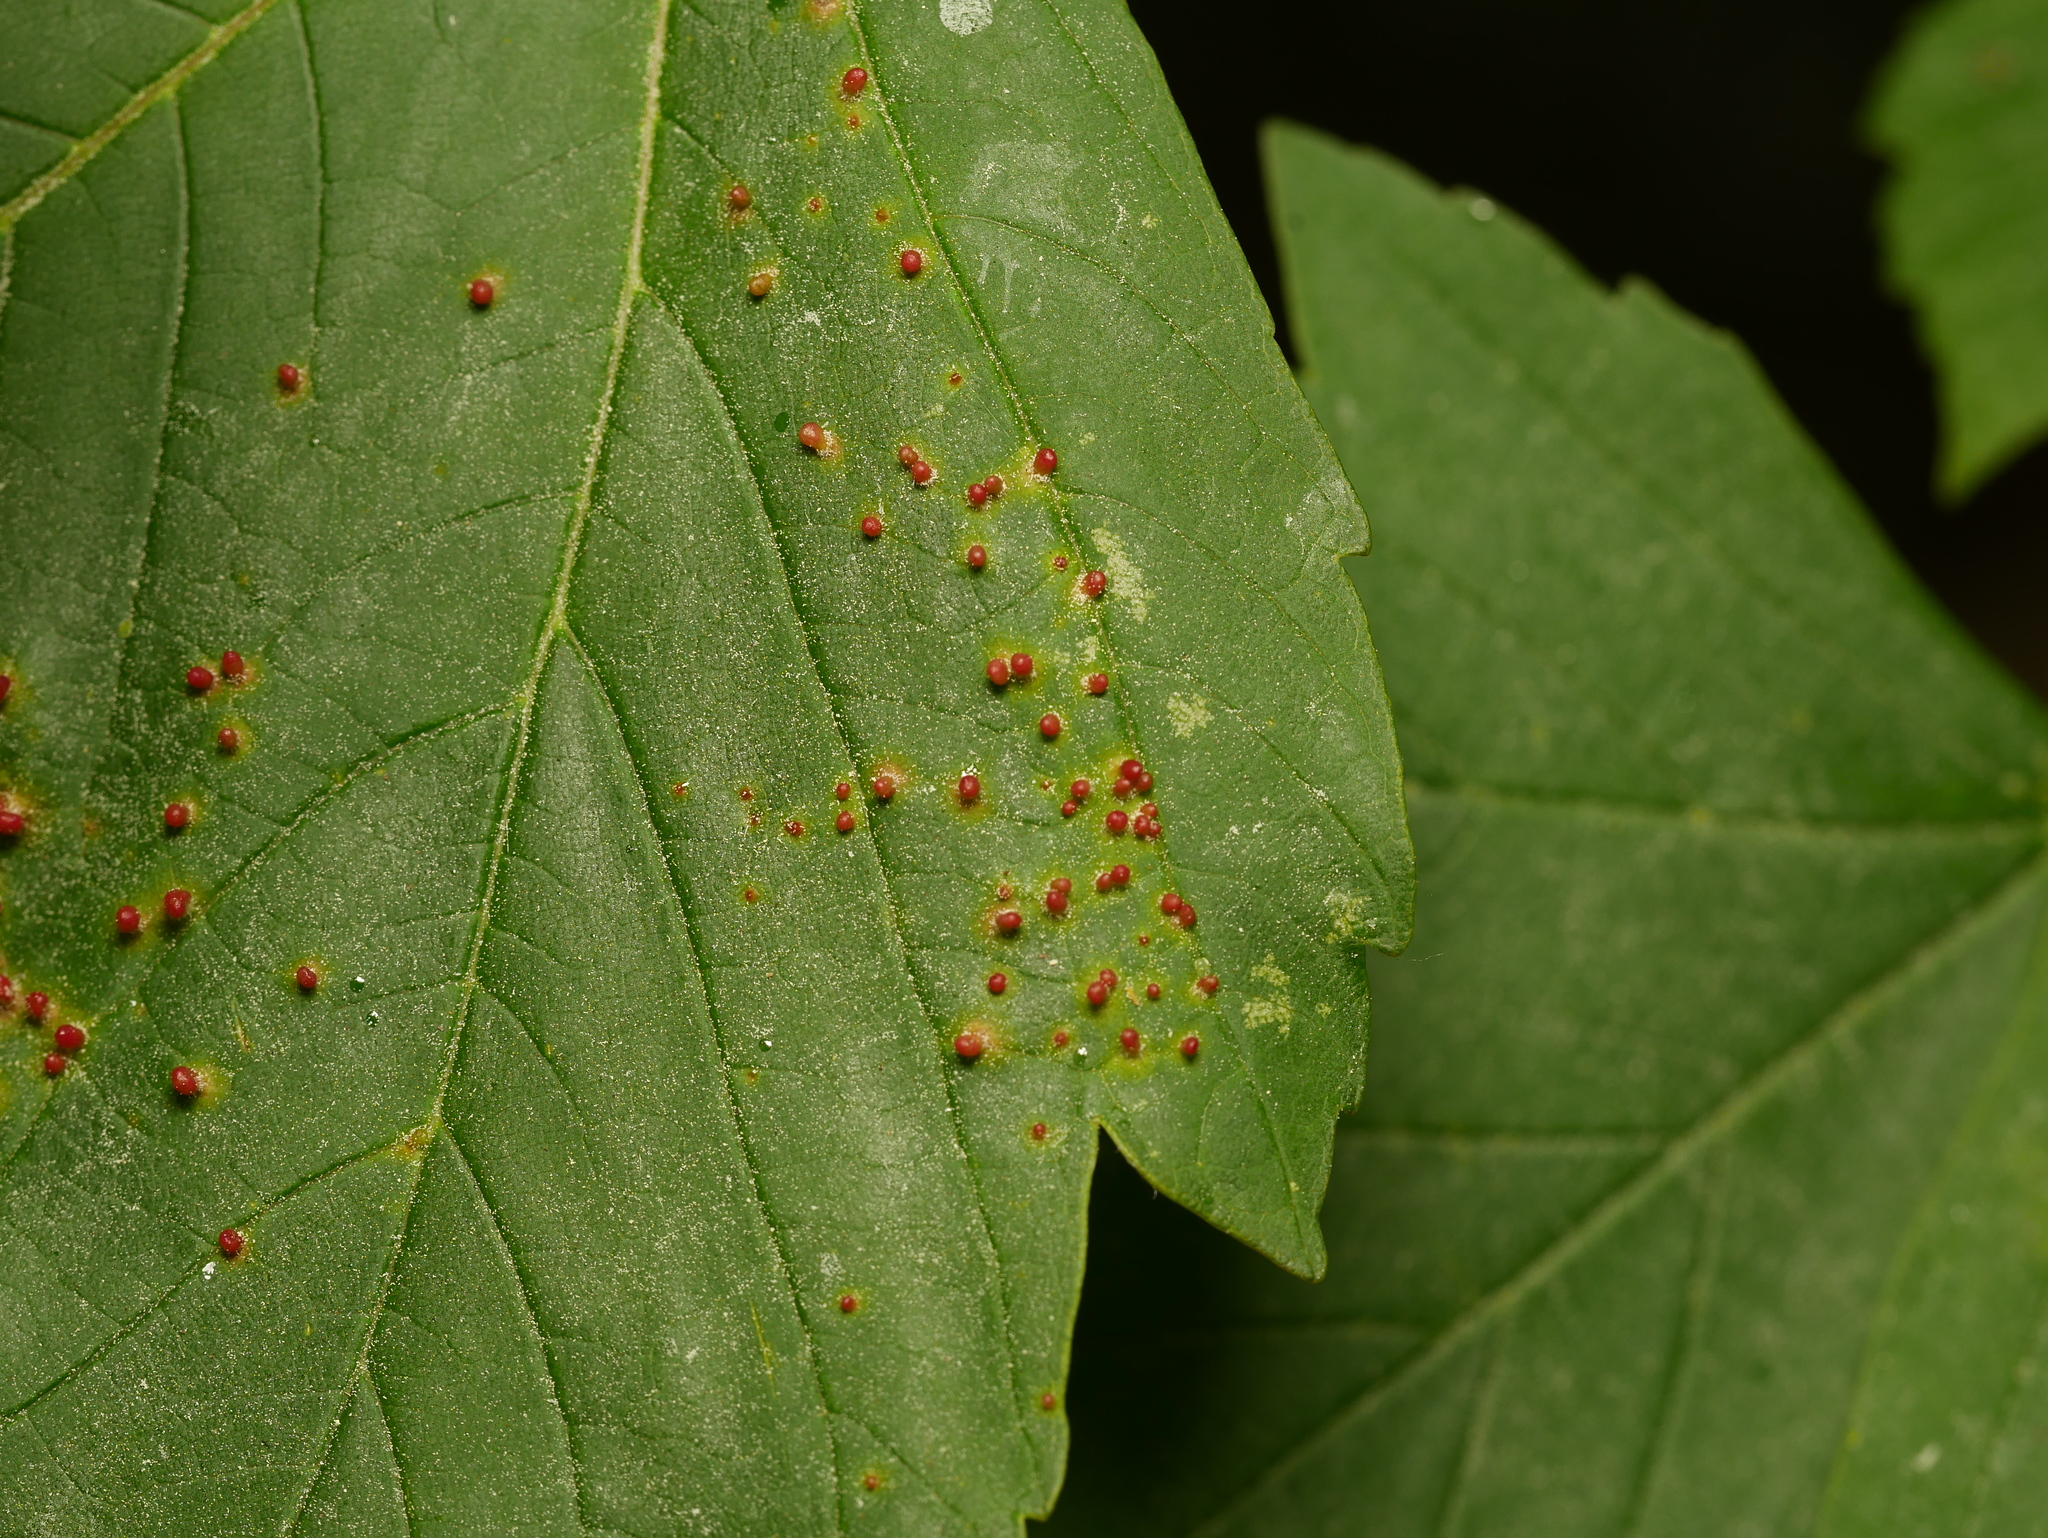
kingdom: Animalia
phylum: Arthropoda
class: Arachnida
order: Trombidiformes
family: Eriophyidae
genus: Aceria
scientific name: Aceria cephaloneus
